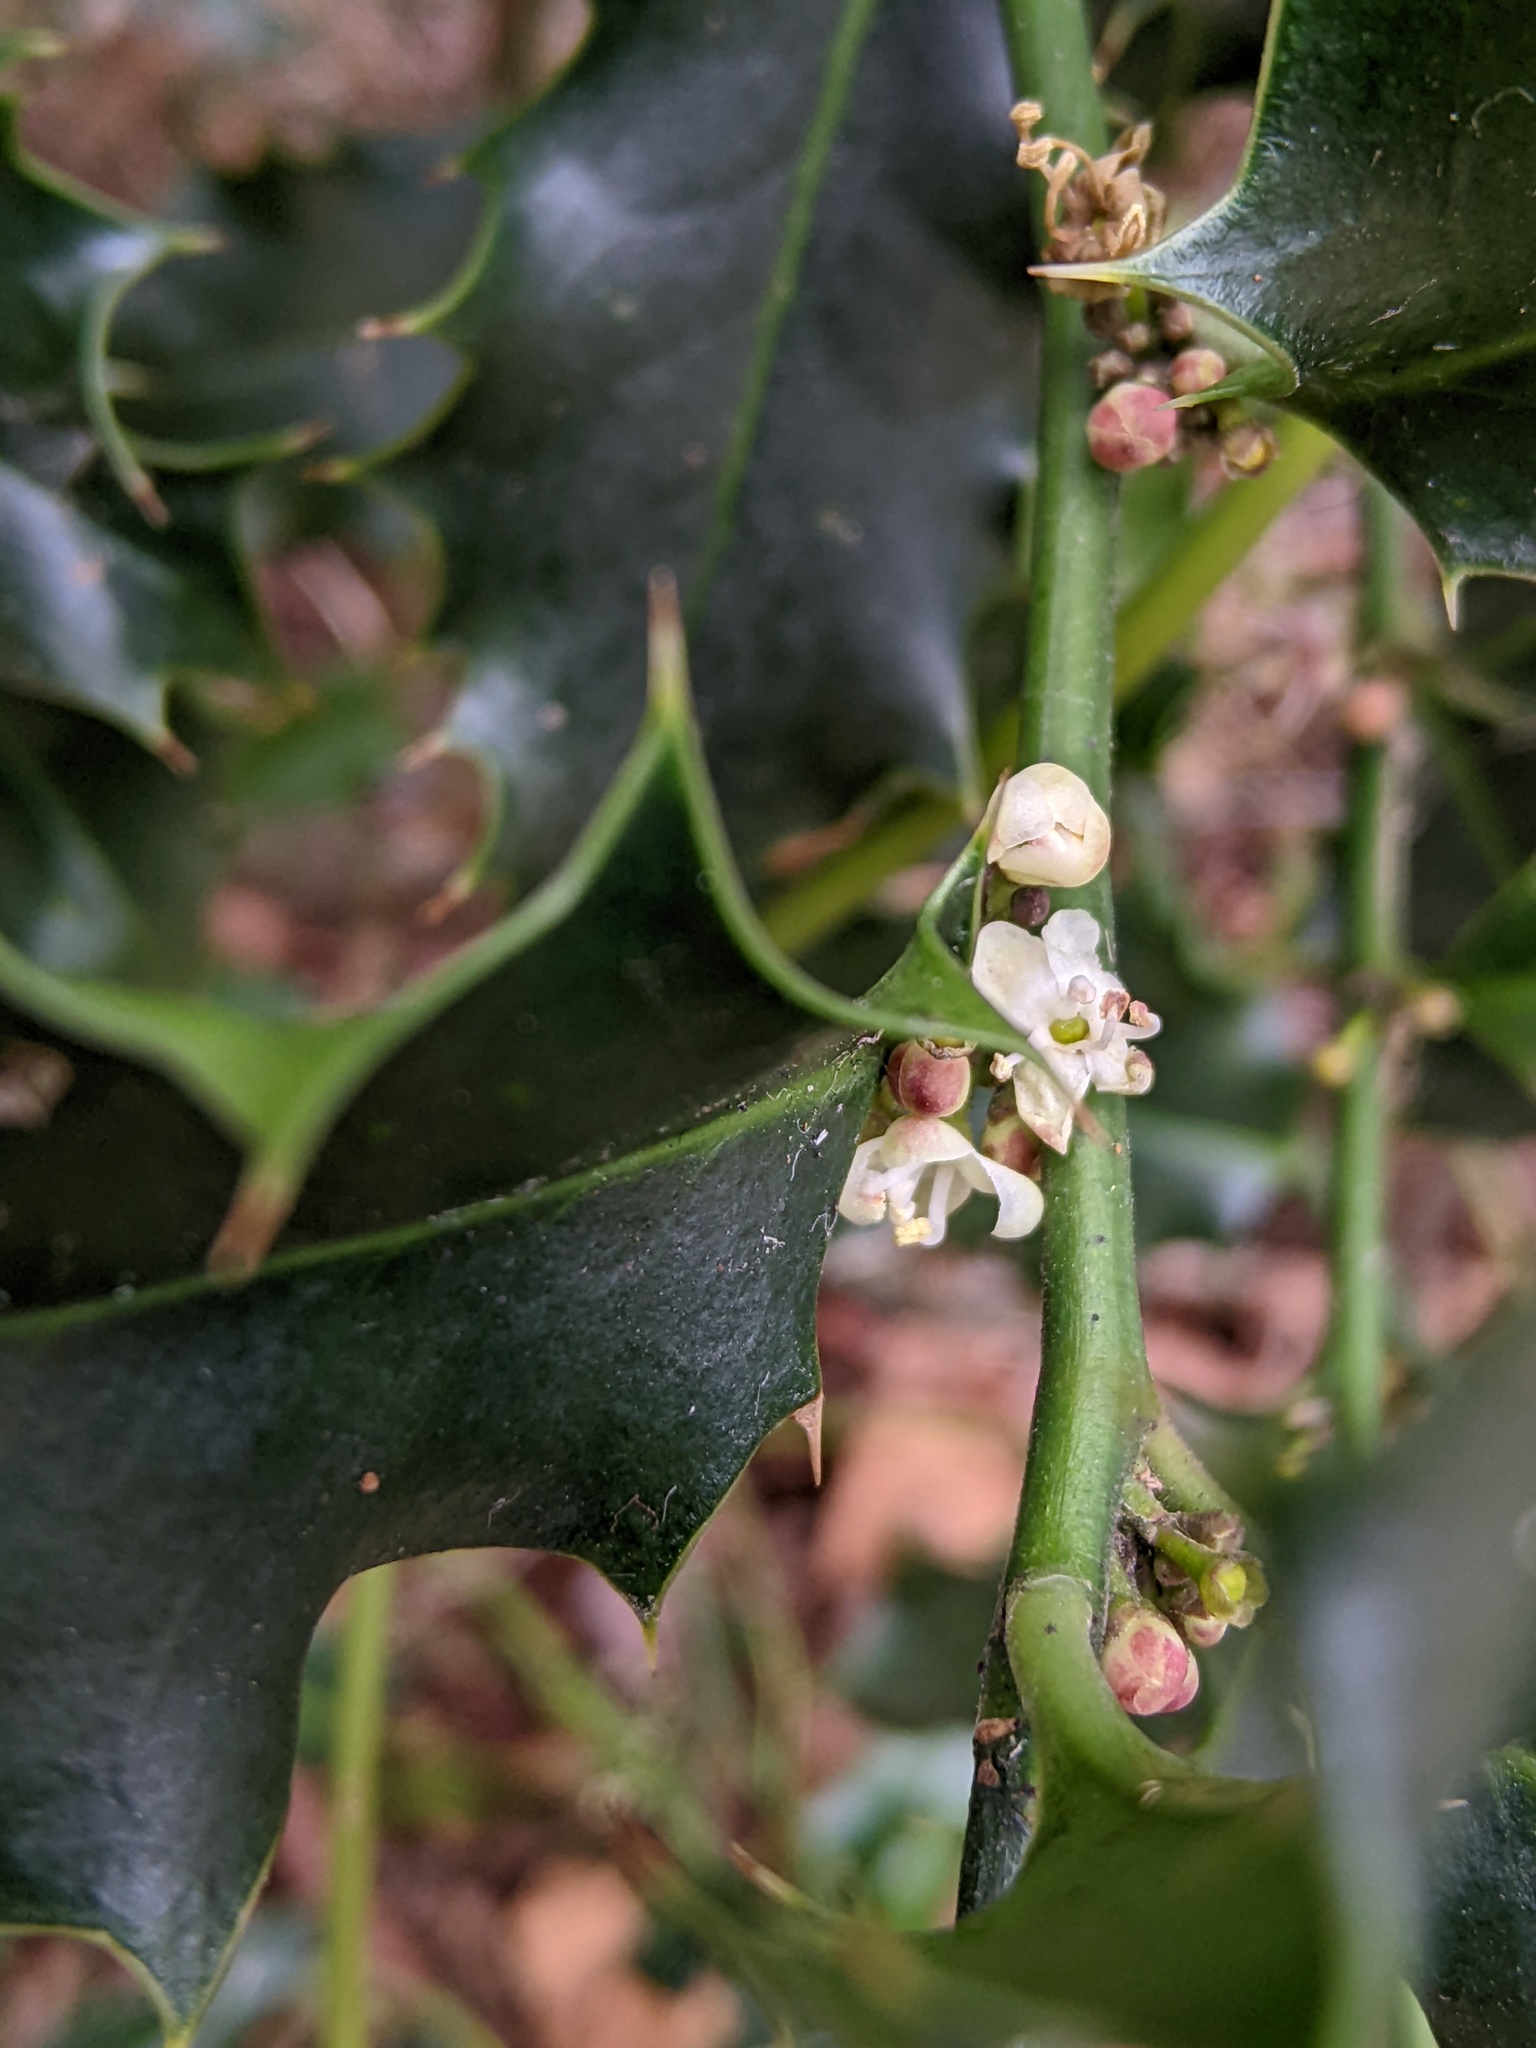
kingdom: Plantae
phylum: Tracheophyta
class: Magnoliopsida
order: Aquifoliales
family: Aquifoliaceae
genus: Ilex
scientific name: Ilex aquifolium
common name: English holly
